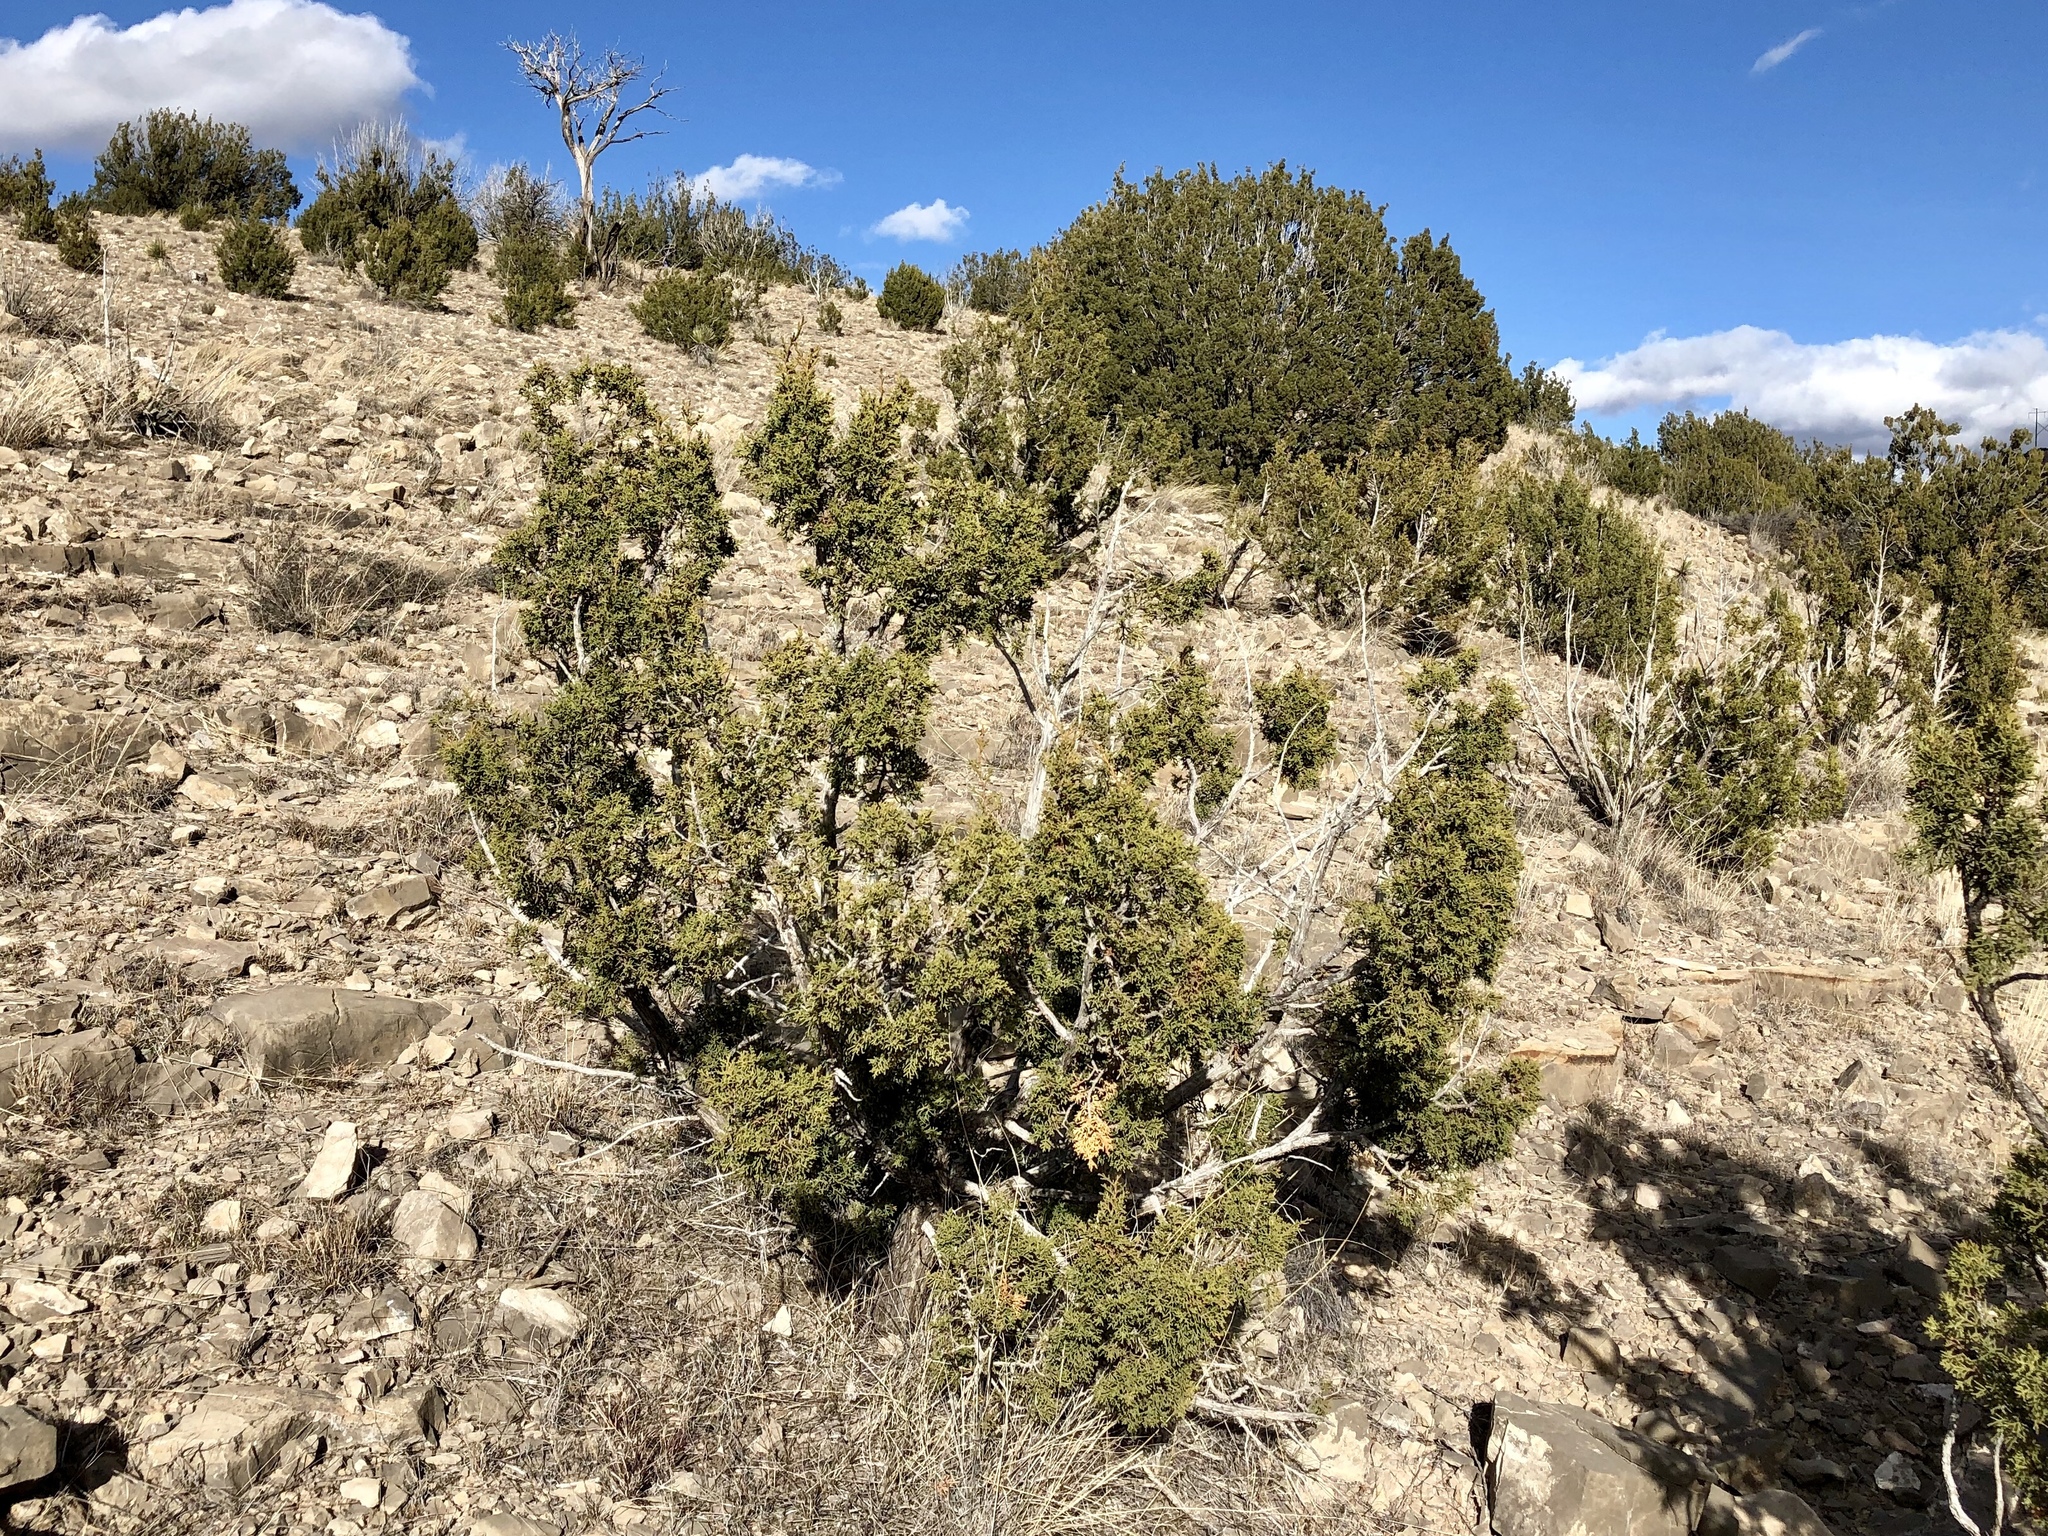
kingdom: Plantae
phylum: Tracheophyta
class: Pinopsida
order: Pinales
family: Cupressaceae
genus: Juniperus
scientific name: Juniperus monosperma
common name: One-seed juniper
